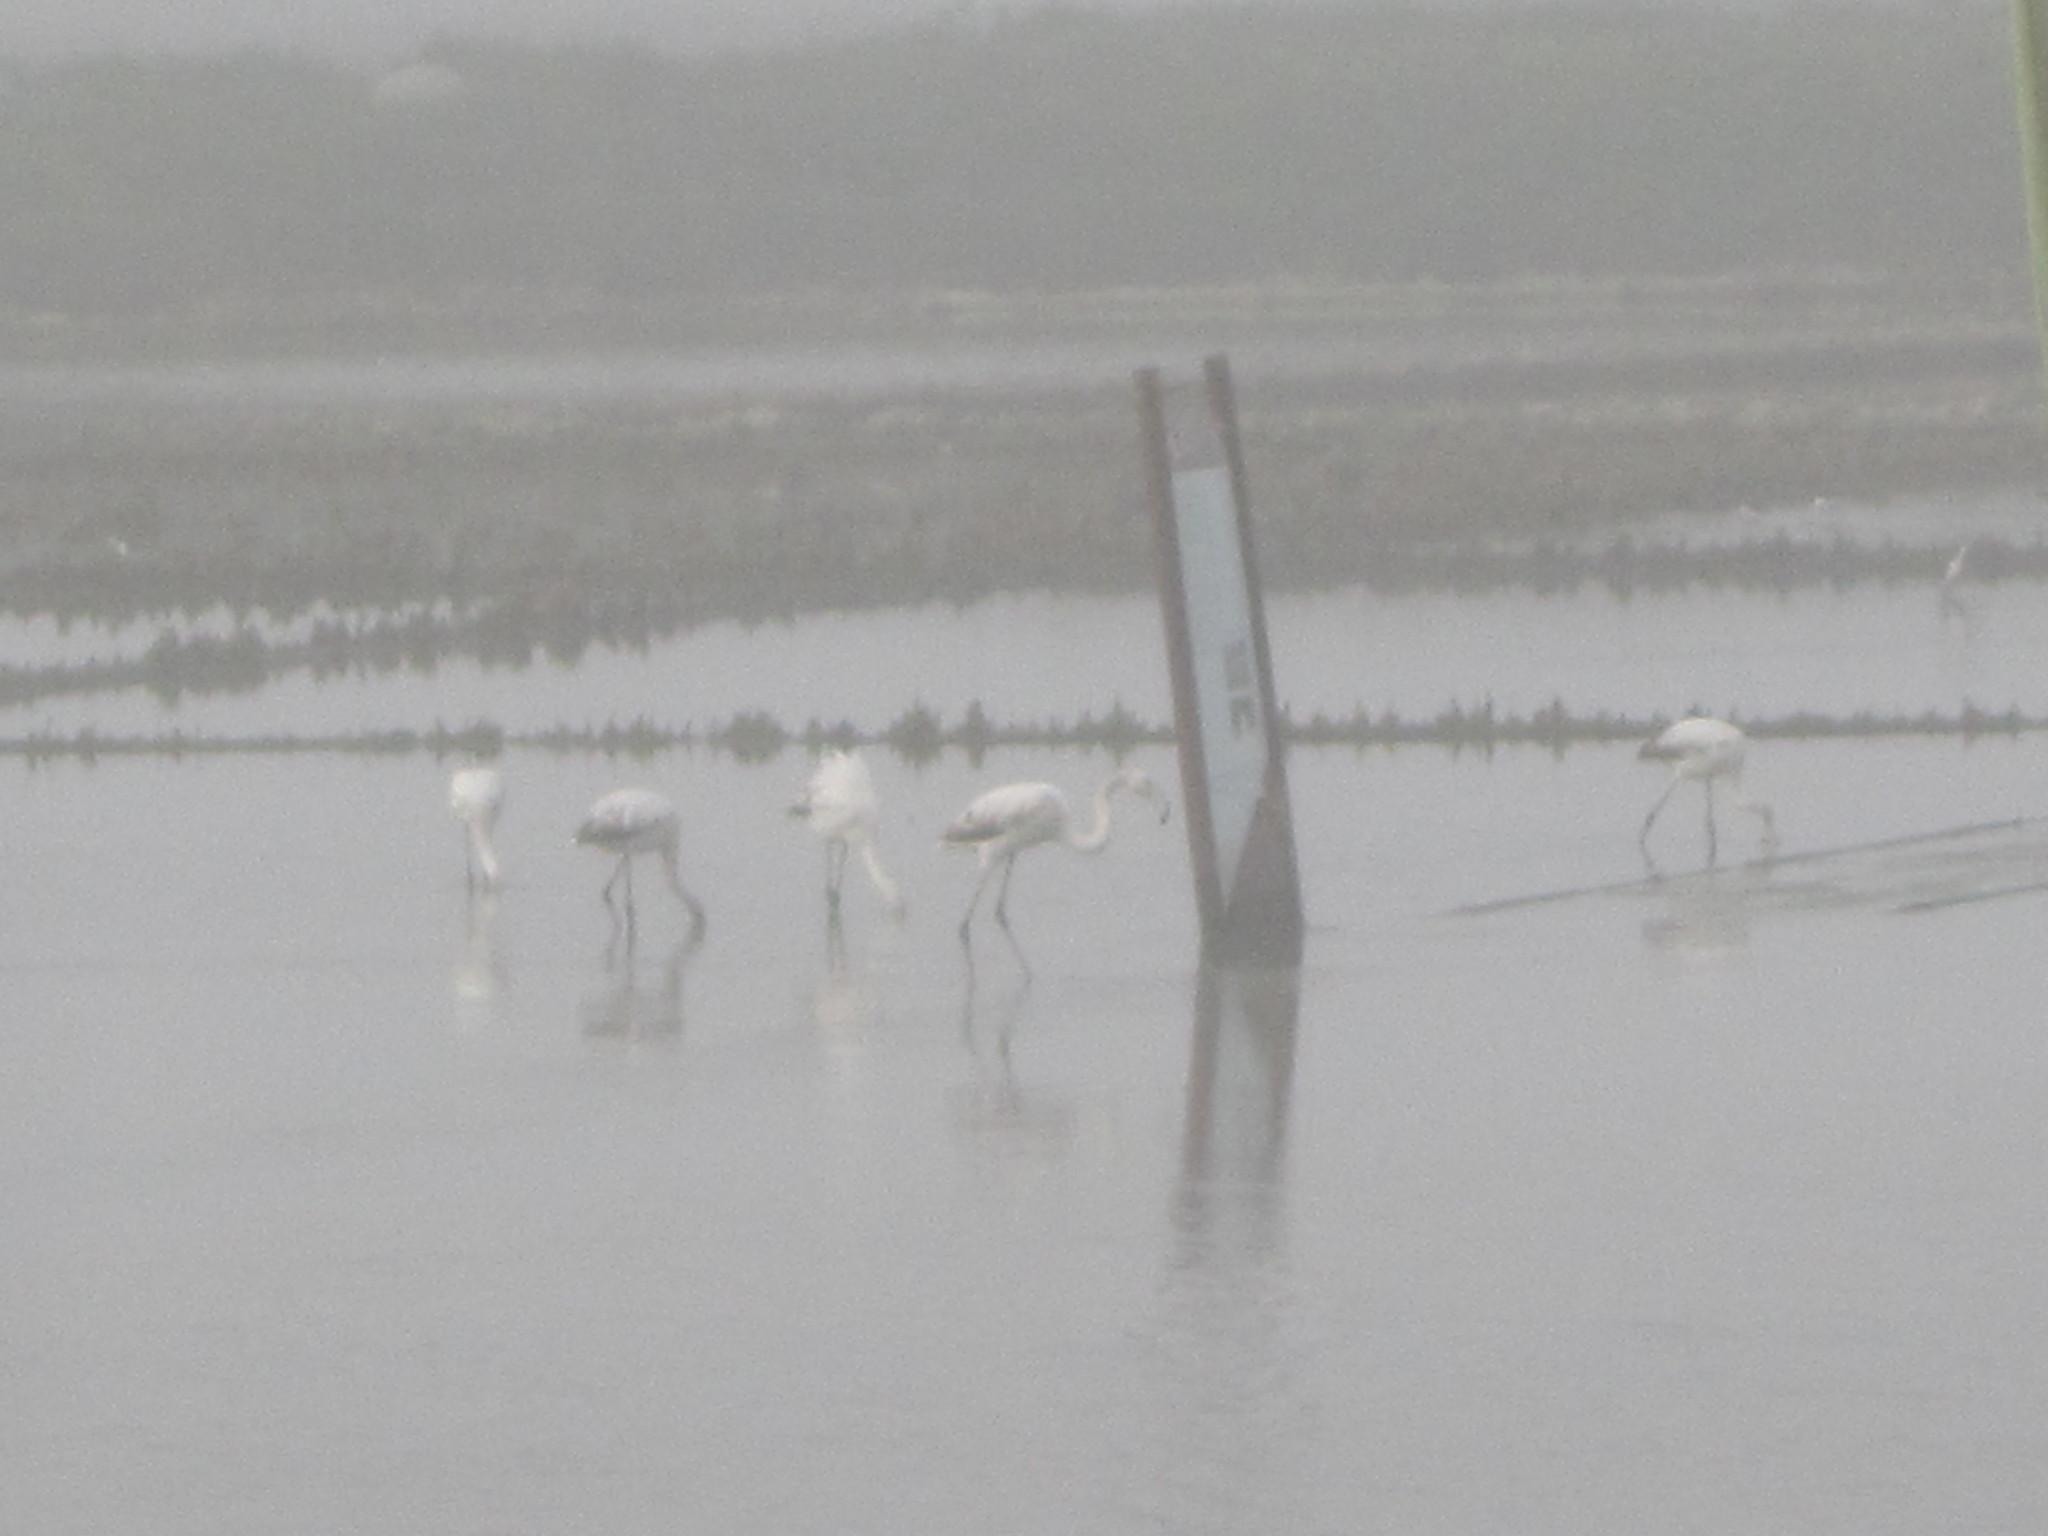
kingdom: Animalia
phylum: Chordata
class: Aves
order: Phoenicopteriformes
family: Phoenicopteridae
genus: Phoenicopterus
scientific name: Phoenicopterus roseus
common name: Greater flamingo
